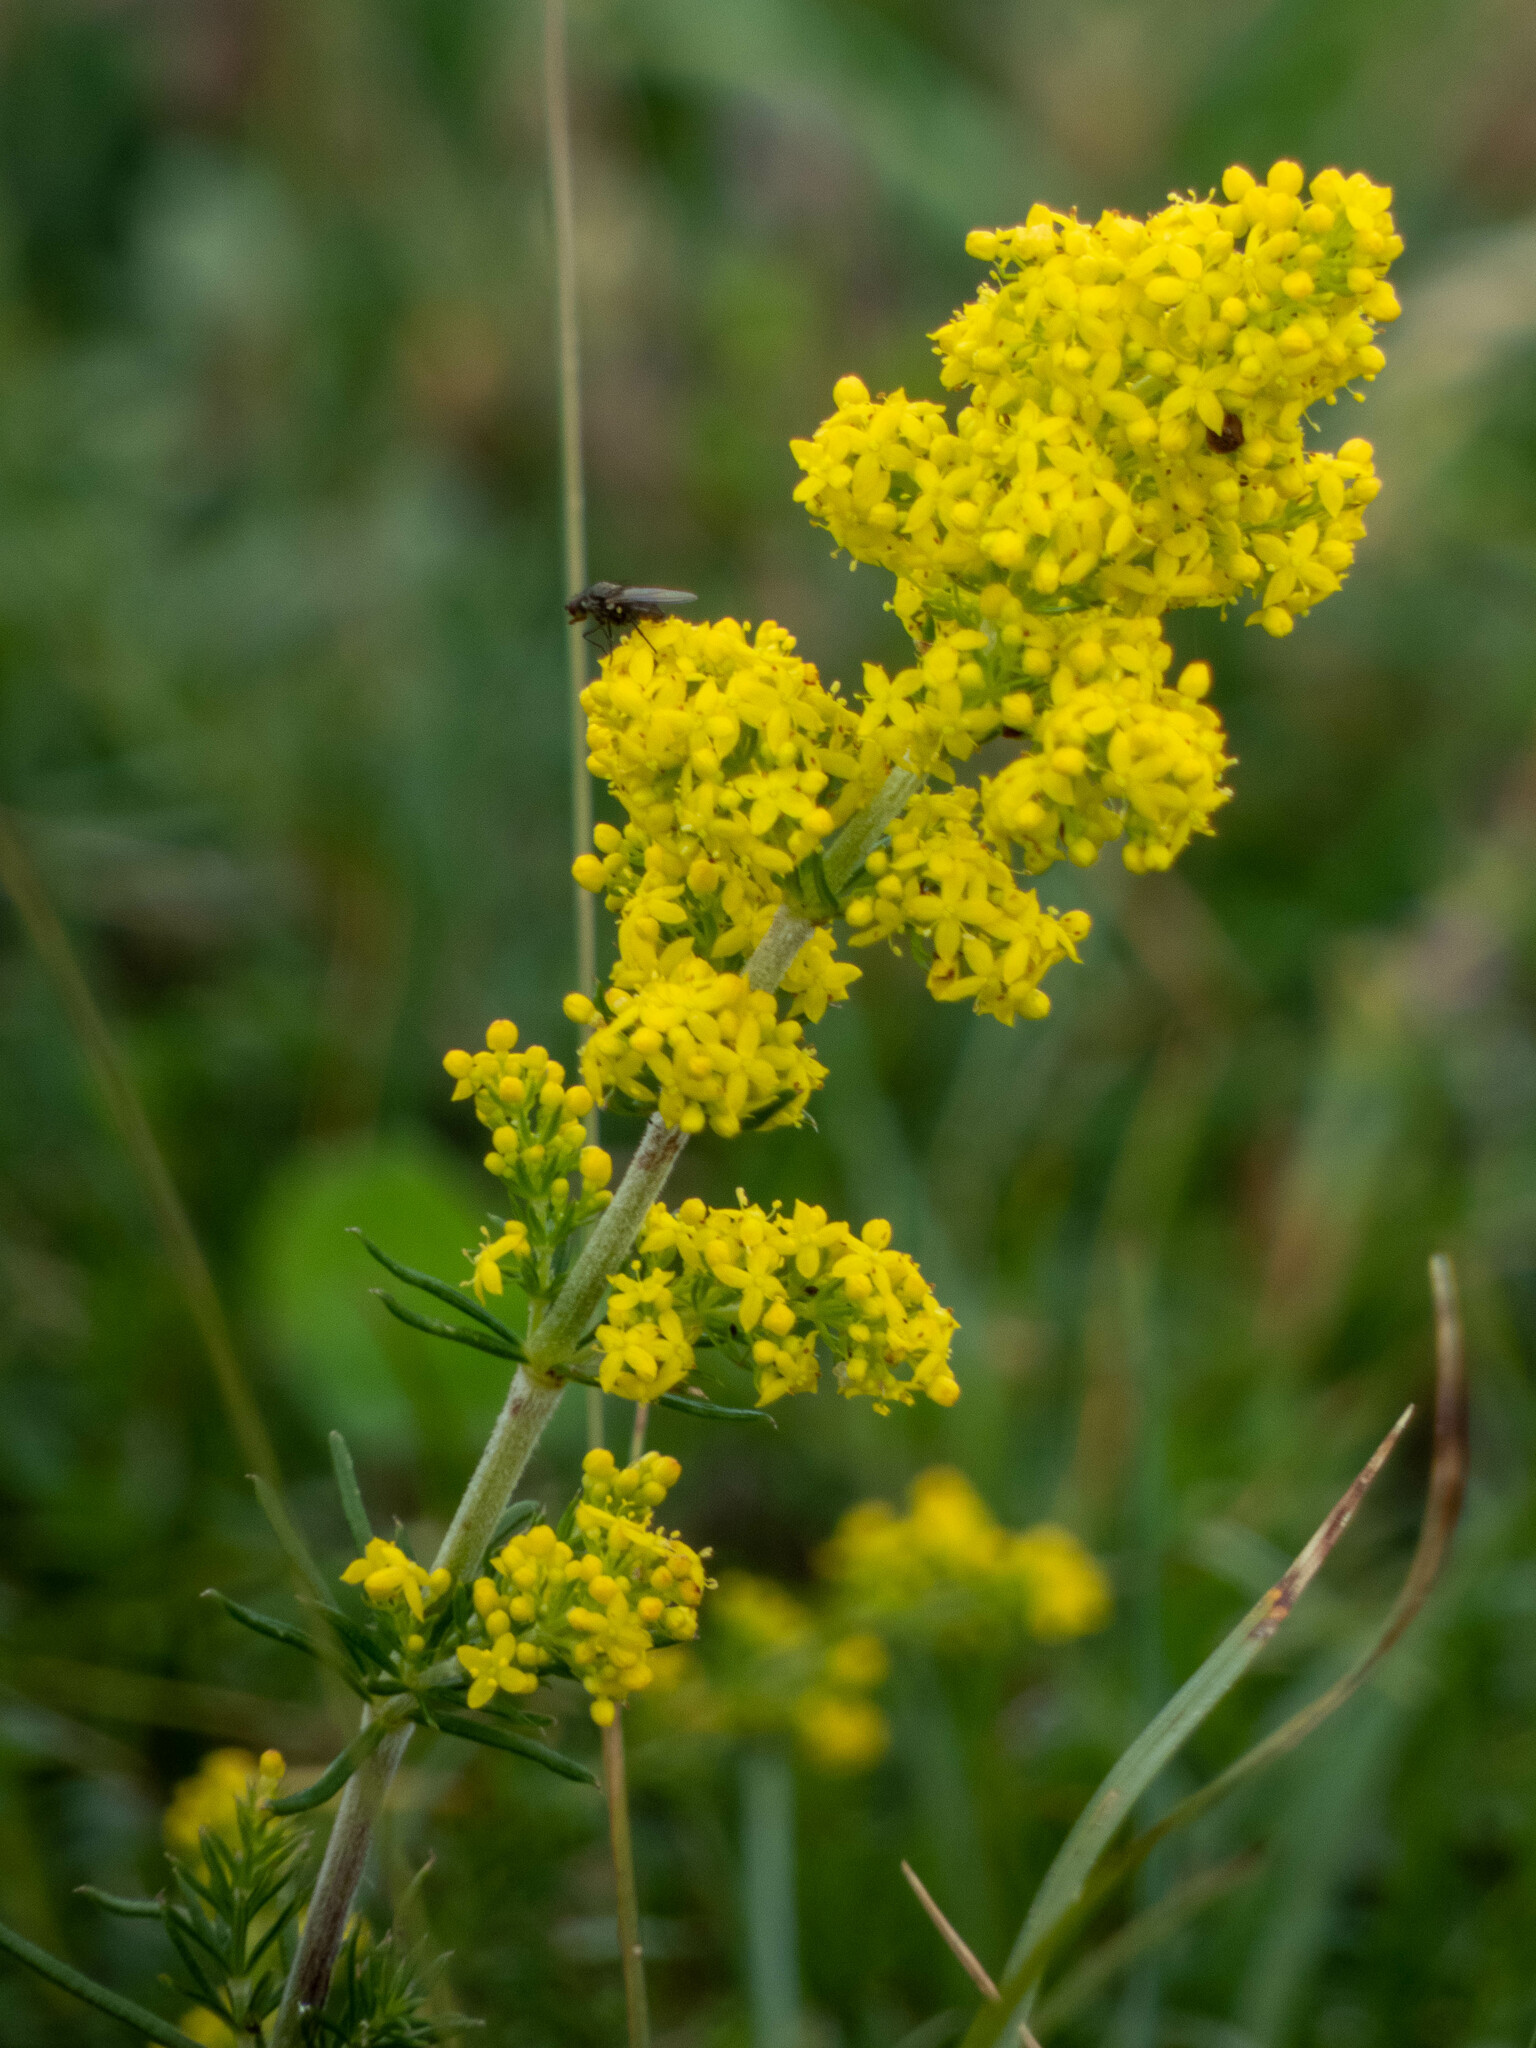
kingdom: Plantae
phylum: Tracheophyta
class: Magnoliopsida
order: Gentianales
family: Rubiaceae
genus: Galium
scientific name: Galium verum
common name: Lady's bedstraw
